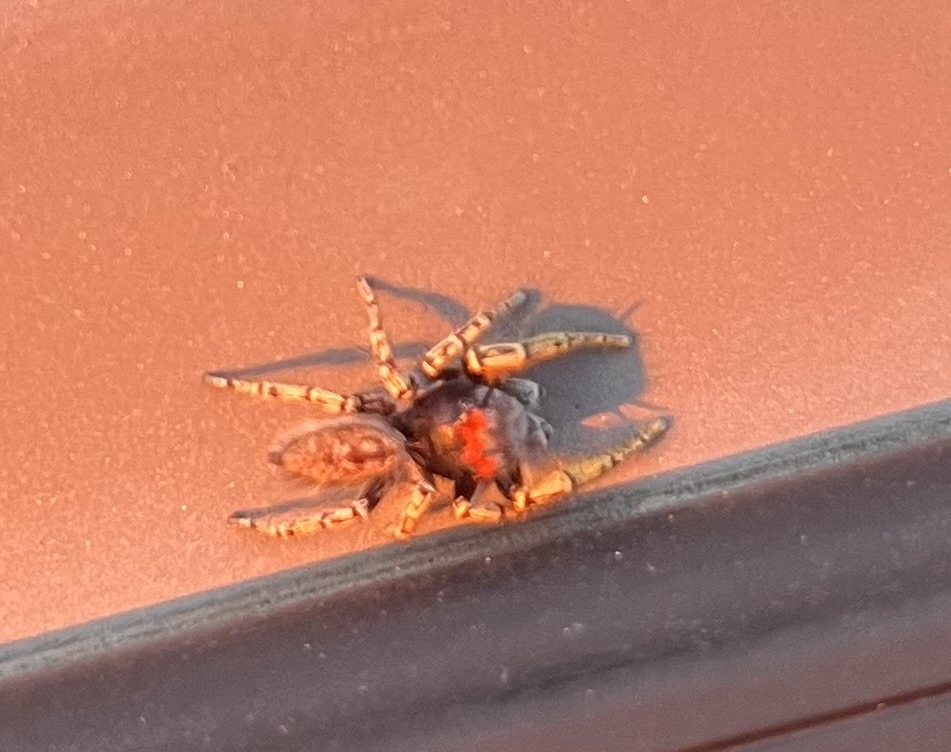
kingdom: Animalia
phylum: Arthropoda
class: Arachnida
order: Araneae
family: Salticidae
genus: Phidippus
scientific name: Phidippus mystaceus
